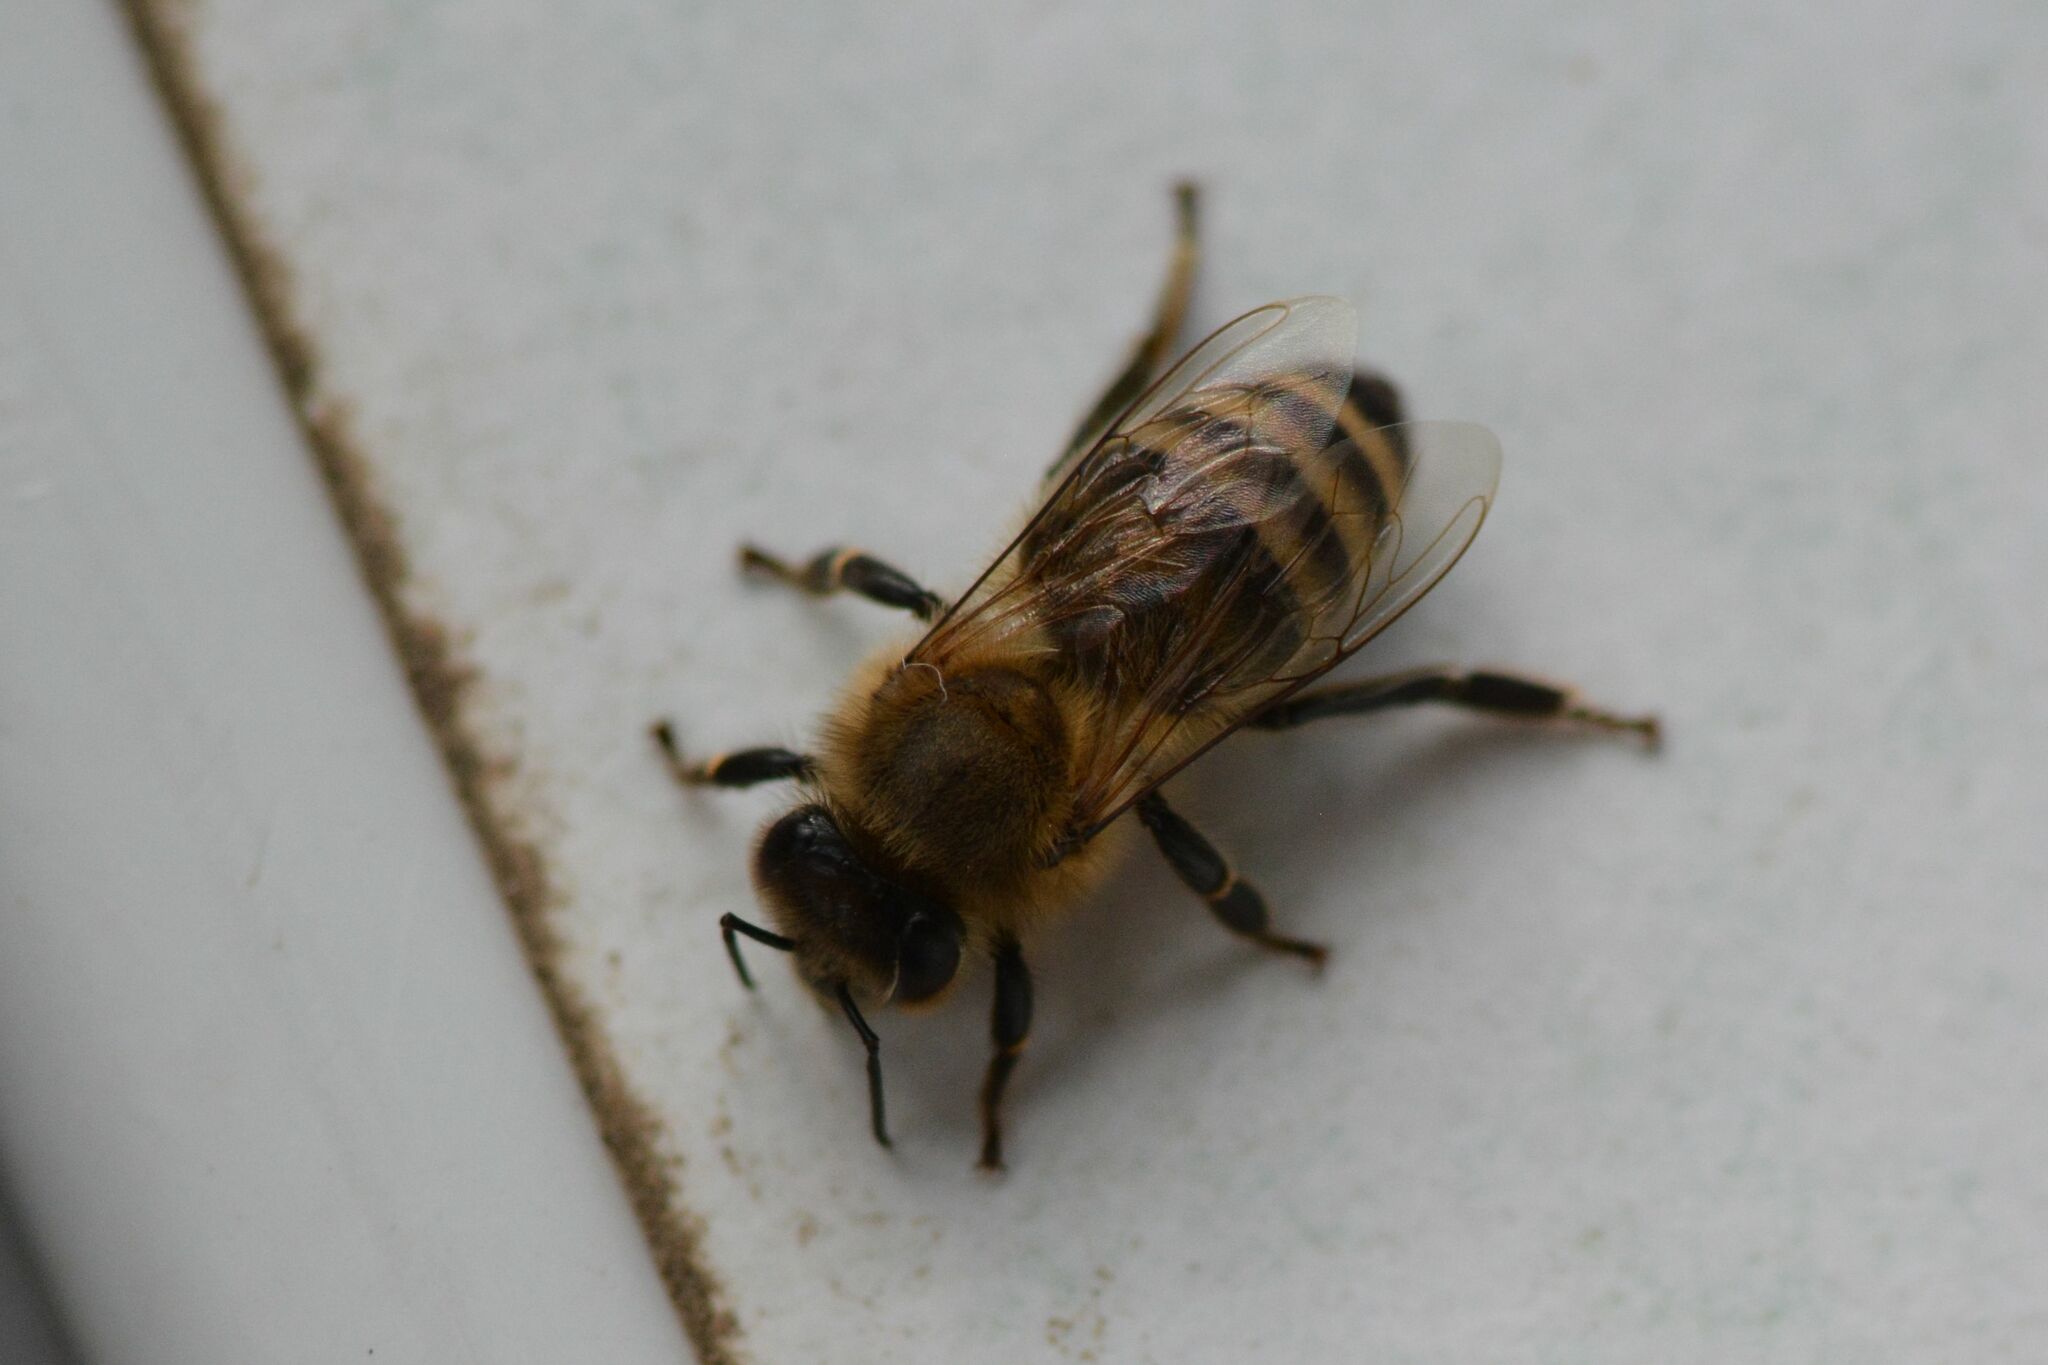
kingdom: Animalia
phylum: Arthropoda
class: Insecta
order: Hymenoptera
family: Apidae
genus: Apis
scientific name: Apis mellifera
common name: Honey bee
